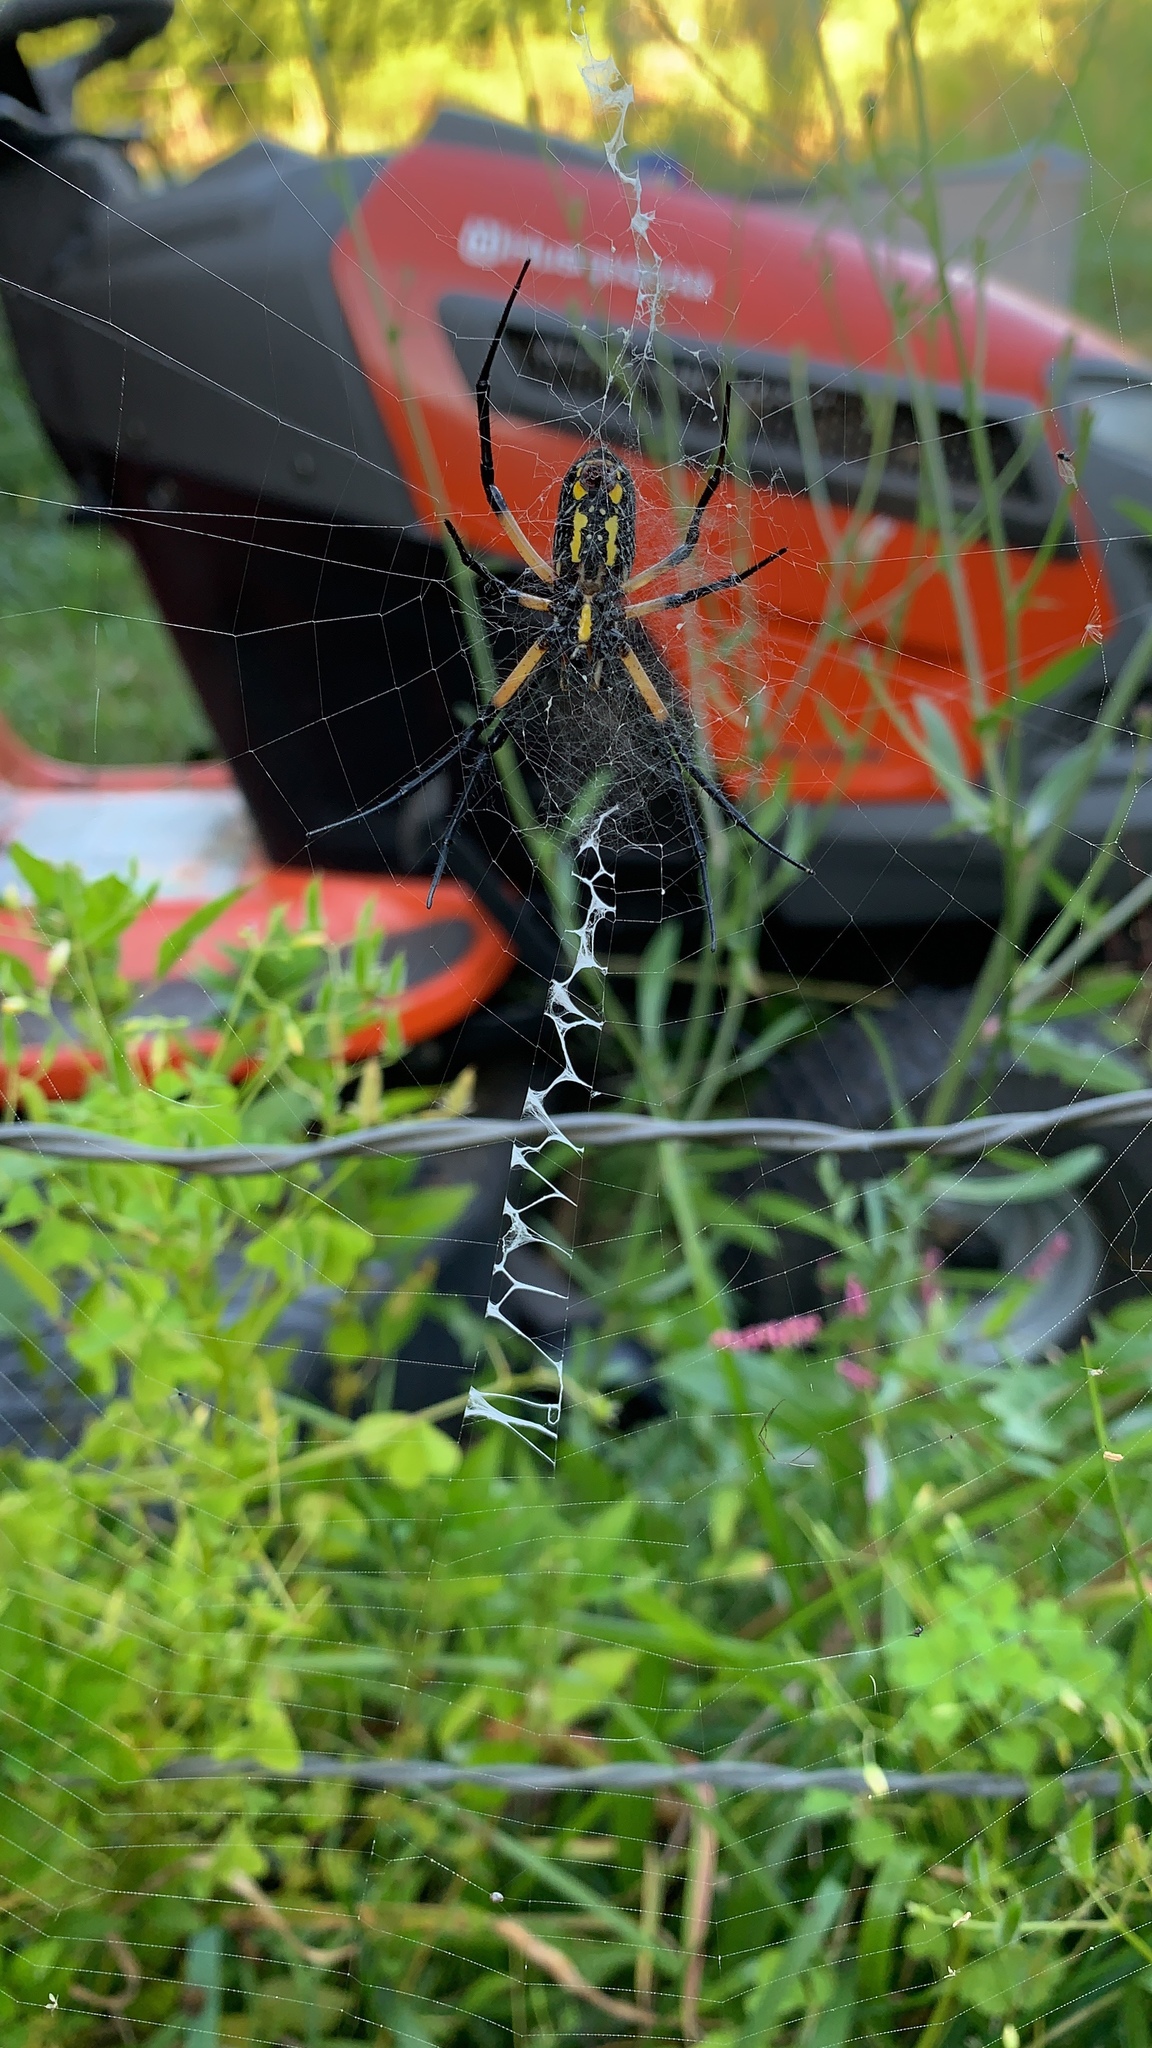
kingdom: Animalia
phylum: Arthropoda
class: Arachnida
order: Araneae
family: Araneidae
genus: Argiope
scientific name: Argiope aurantia
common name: Orb weavers
